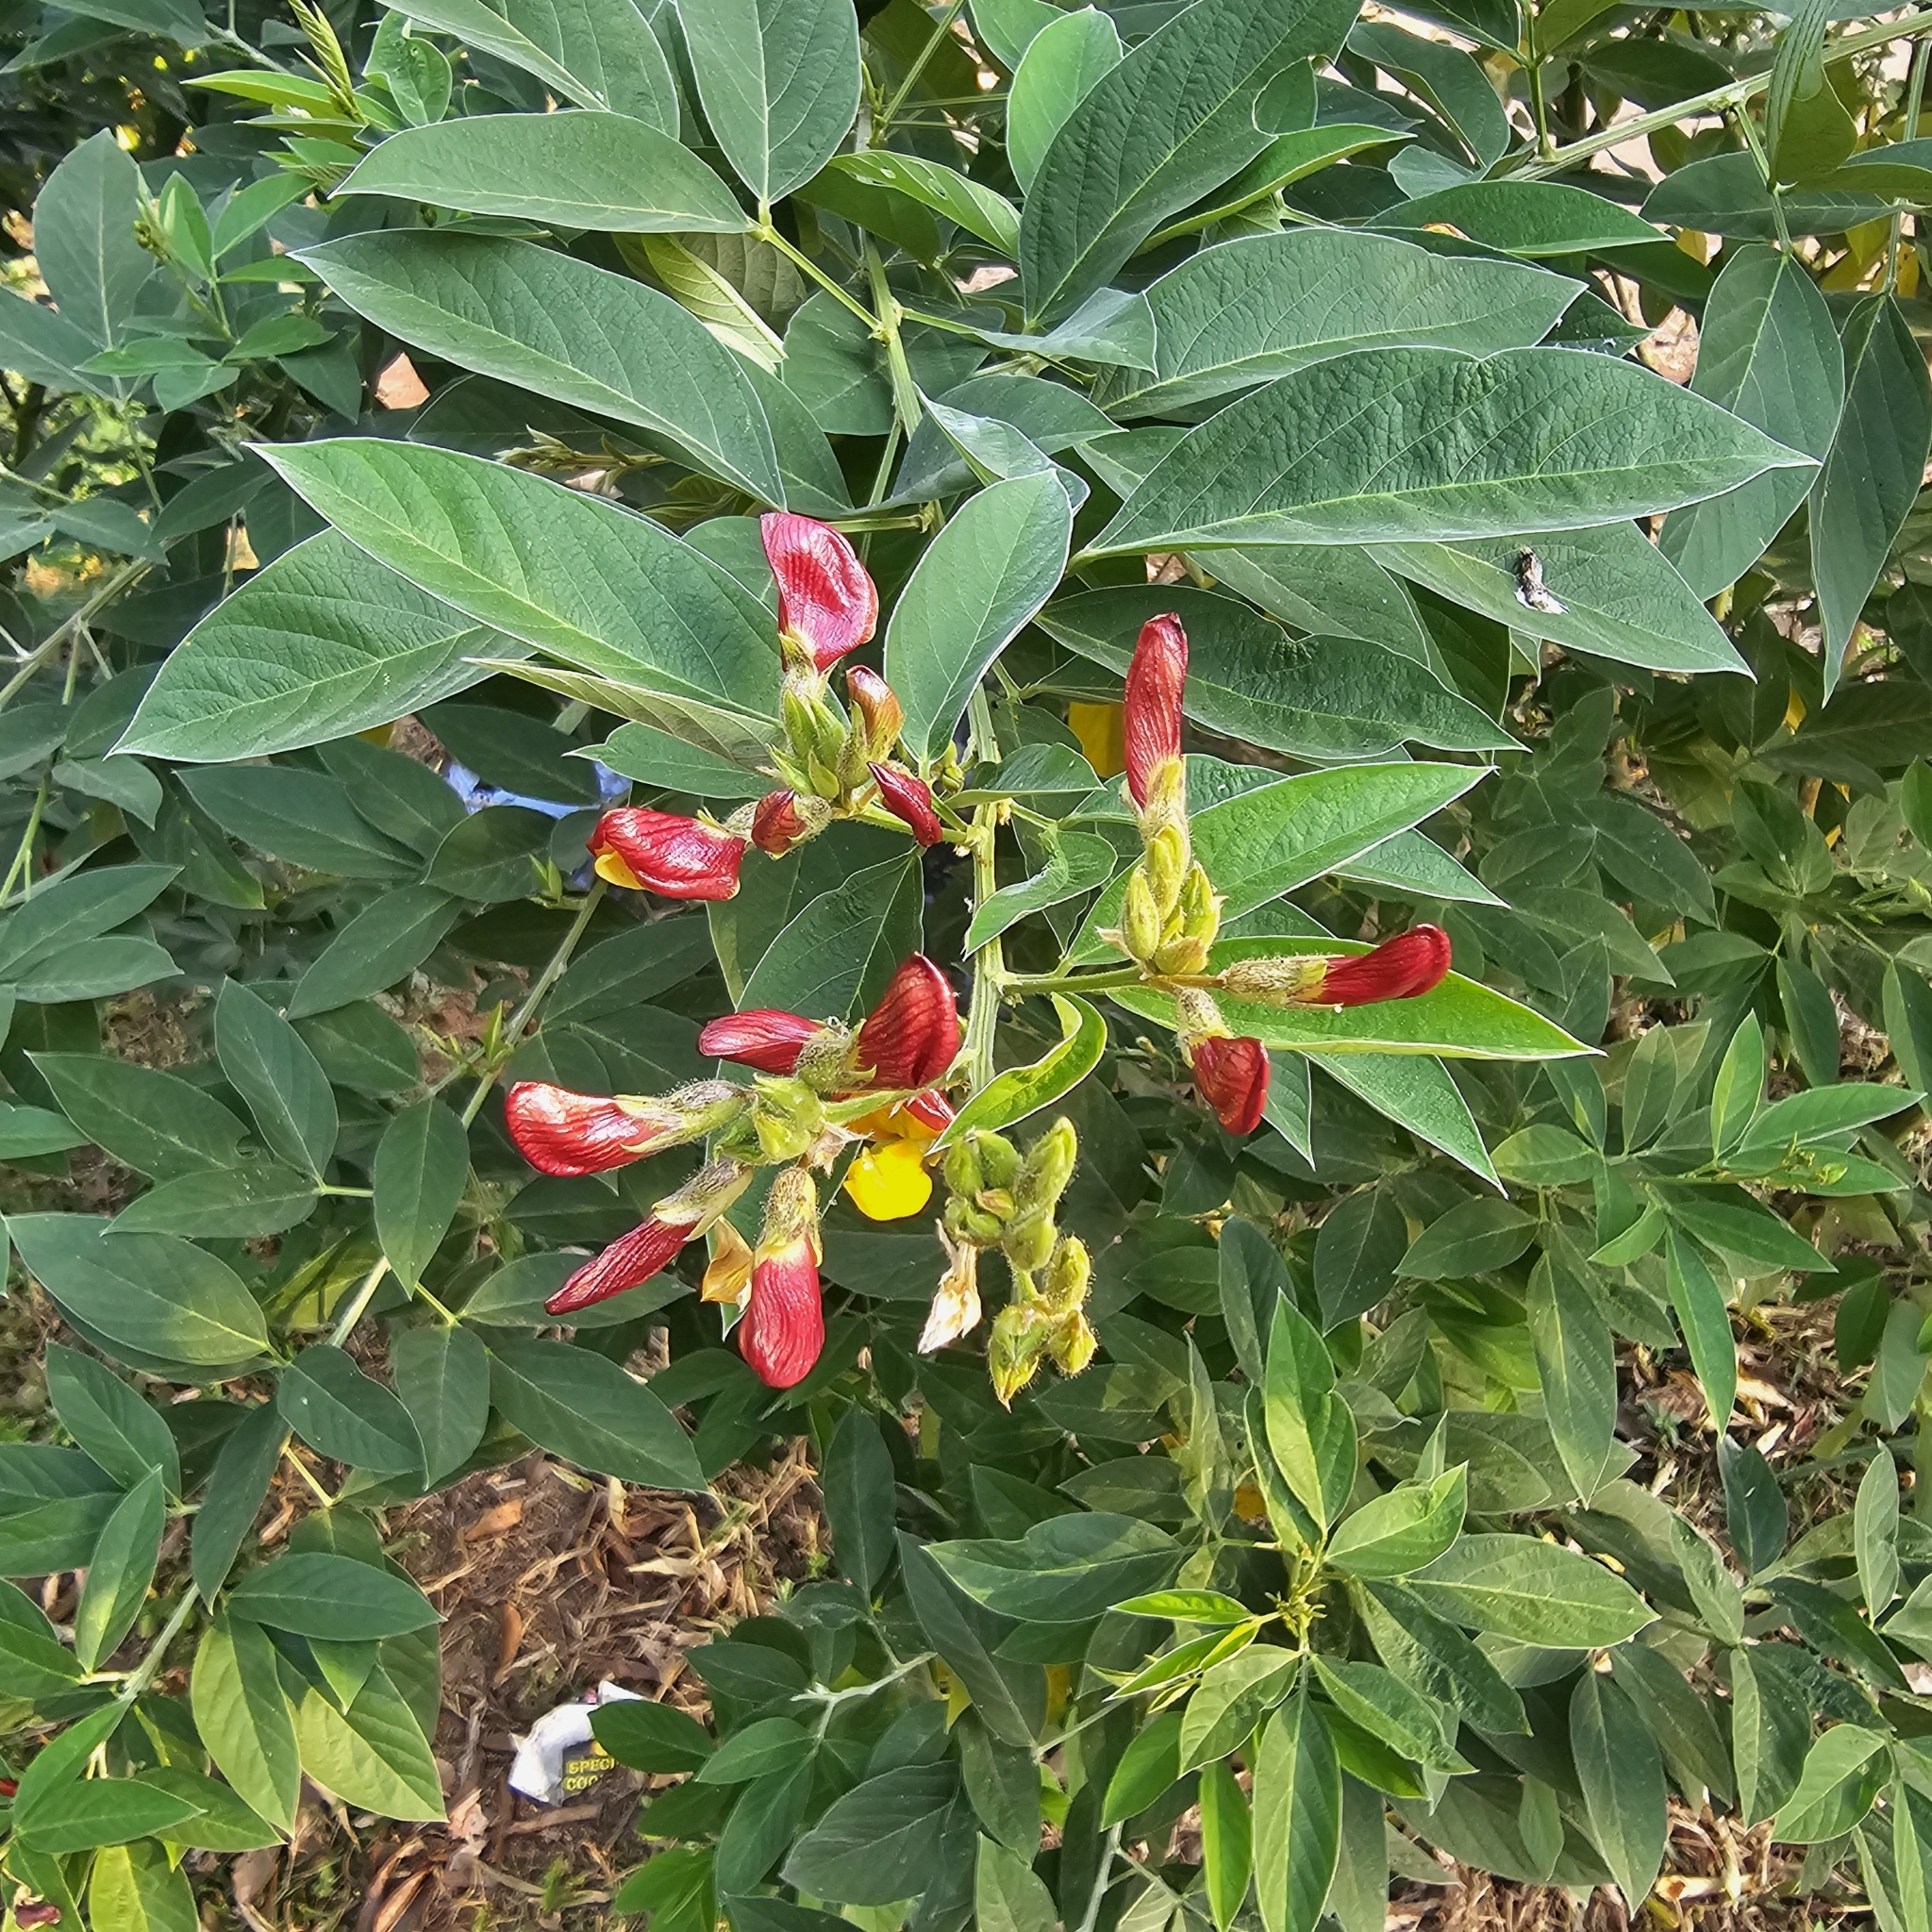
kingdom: Plantae
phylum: Tracheophyta
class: Magnoliopsida
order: Fabales
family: Fabaceae
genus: Cajanus
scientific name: Cajanus cajan
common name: Pigeonpea
